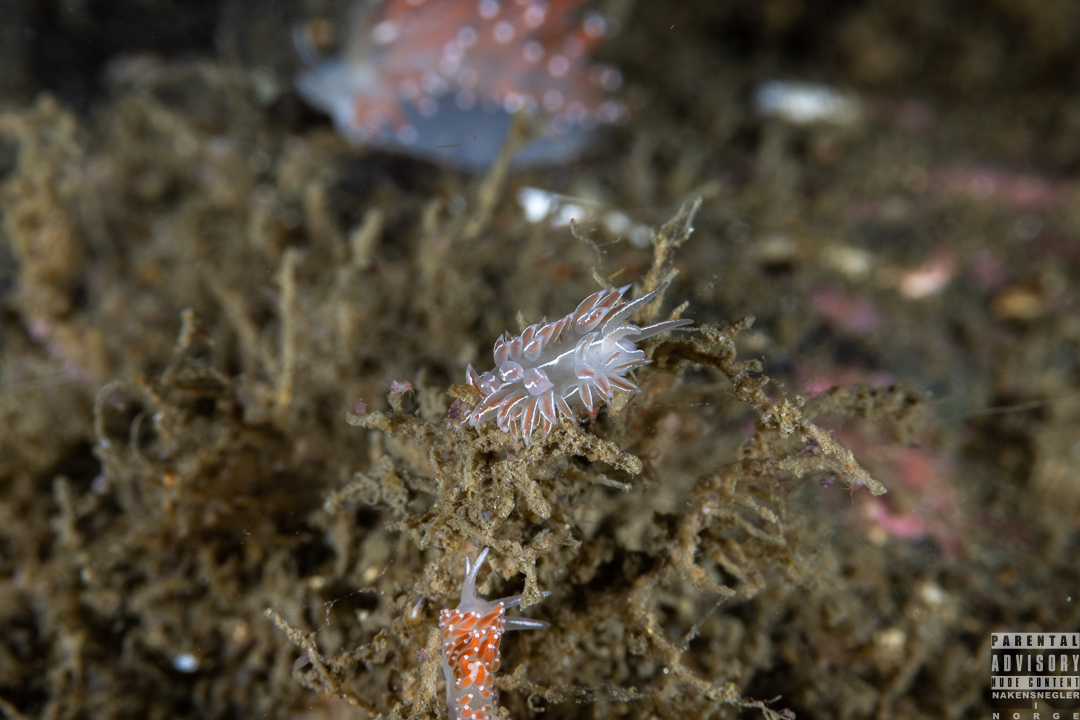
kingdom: Animalia
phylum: Mollusca
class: Gastropoda
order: Nudibranchia
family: Coryphellidae
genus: Coryphella
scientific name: Coryphella chriskaugei
